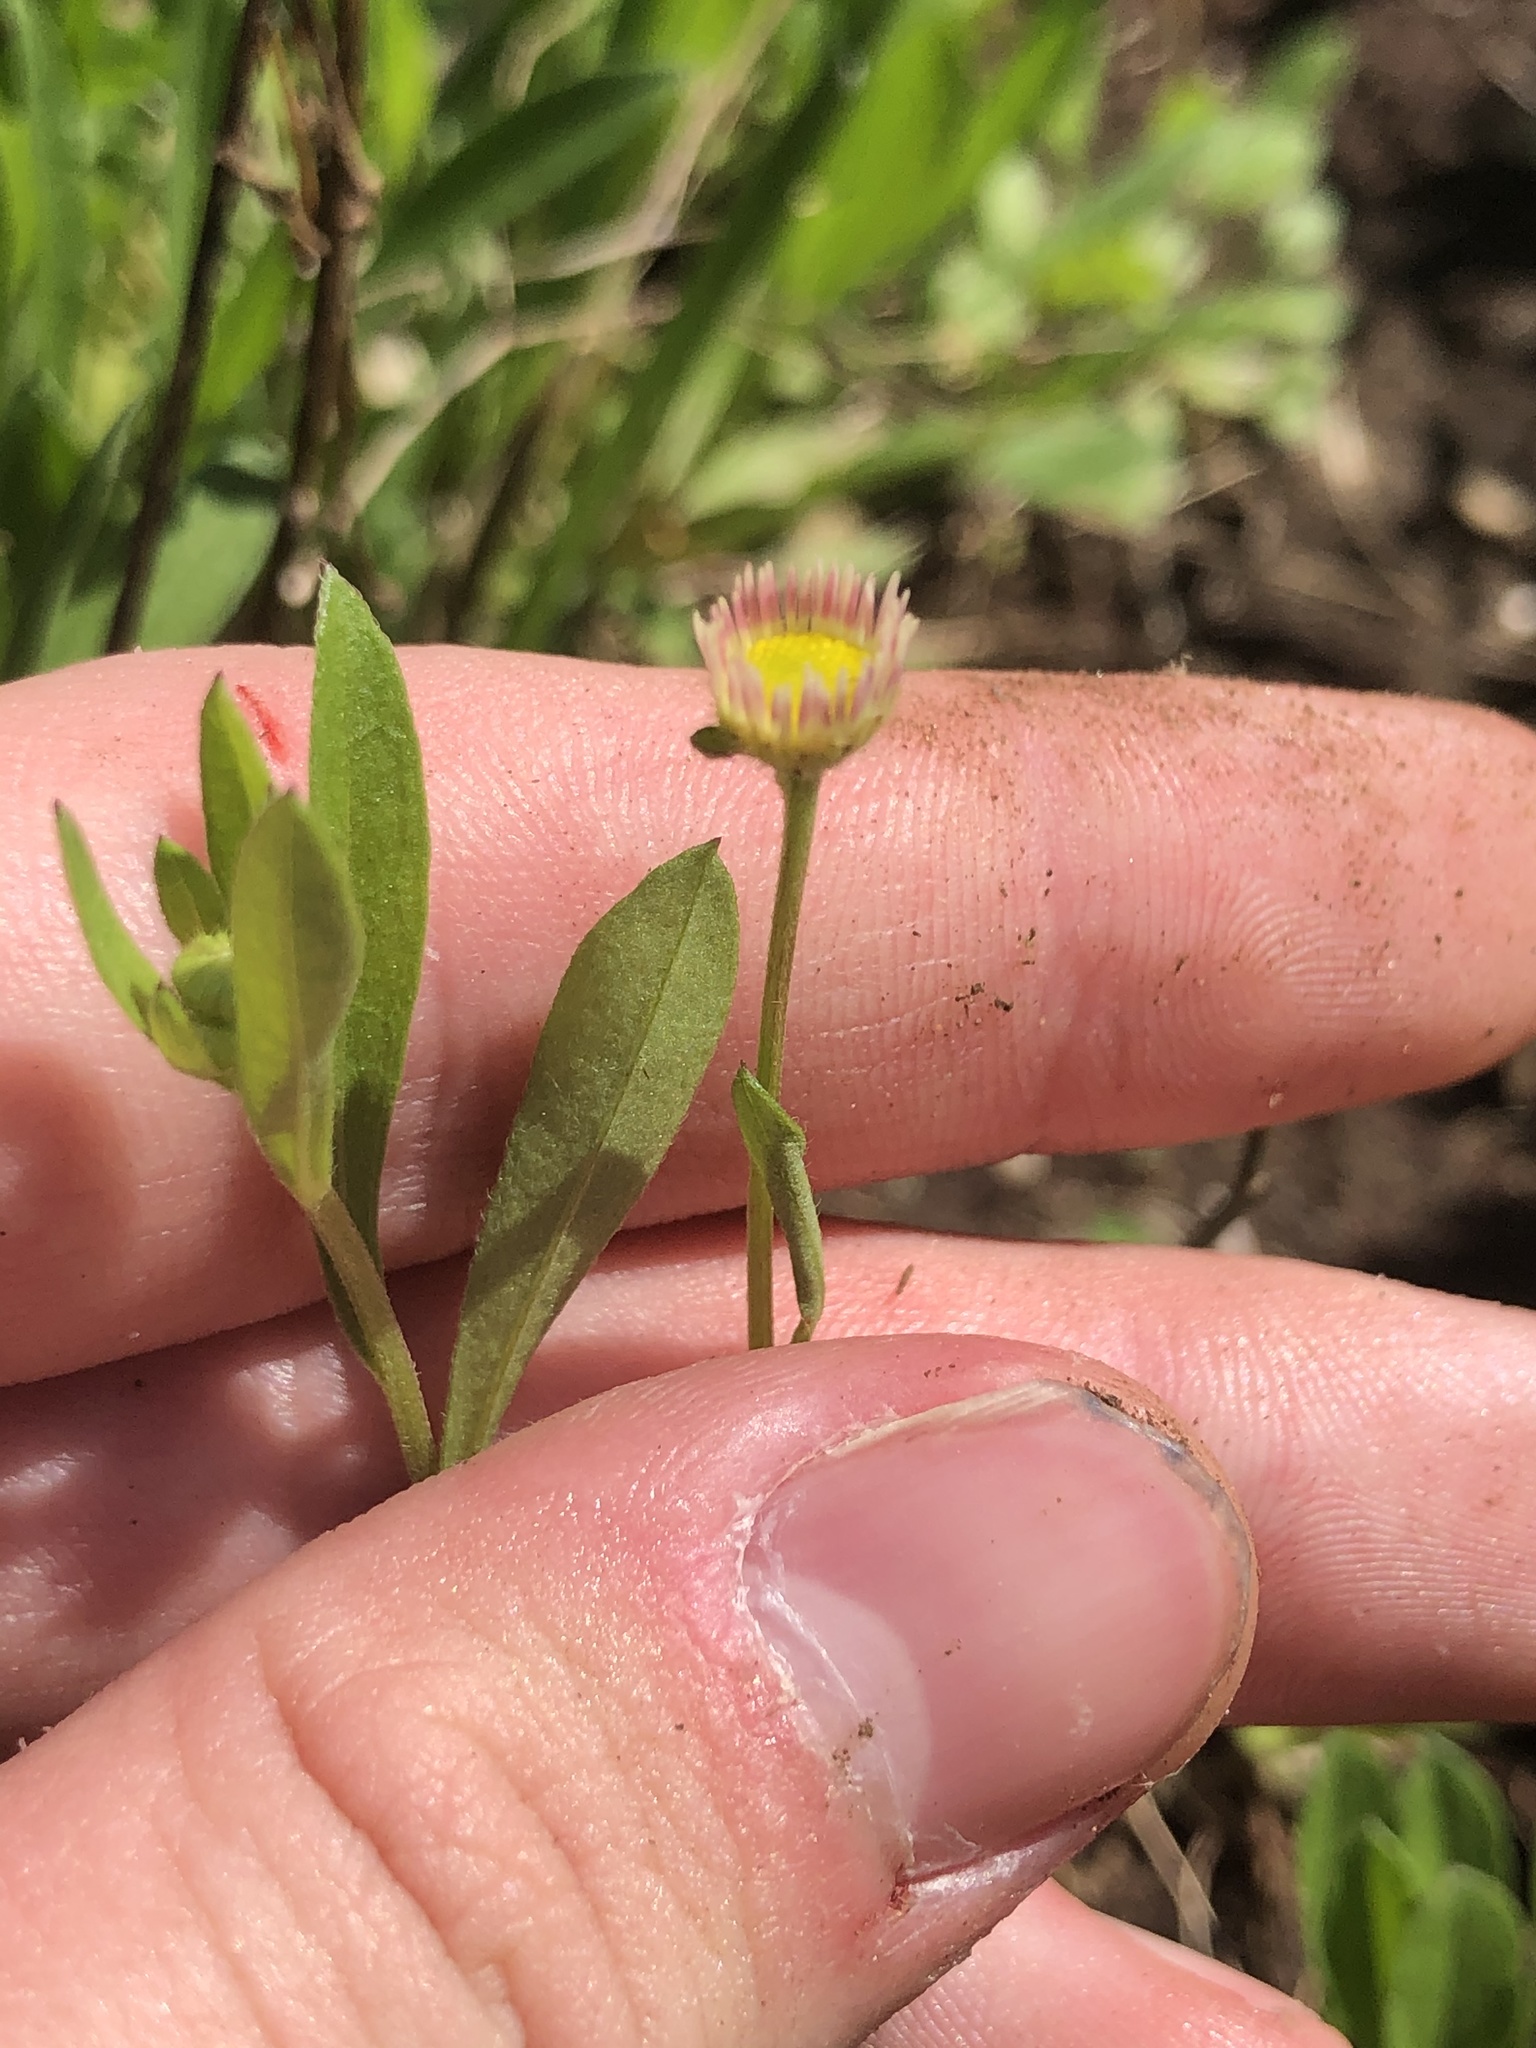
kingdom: Plantae
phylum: Tracheophyta
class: Magnoliopsida
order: Asterales
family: Asteraceae
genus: Erigeron
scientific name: Erigeron strigosus
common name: Common eastern fleabane
